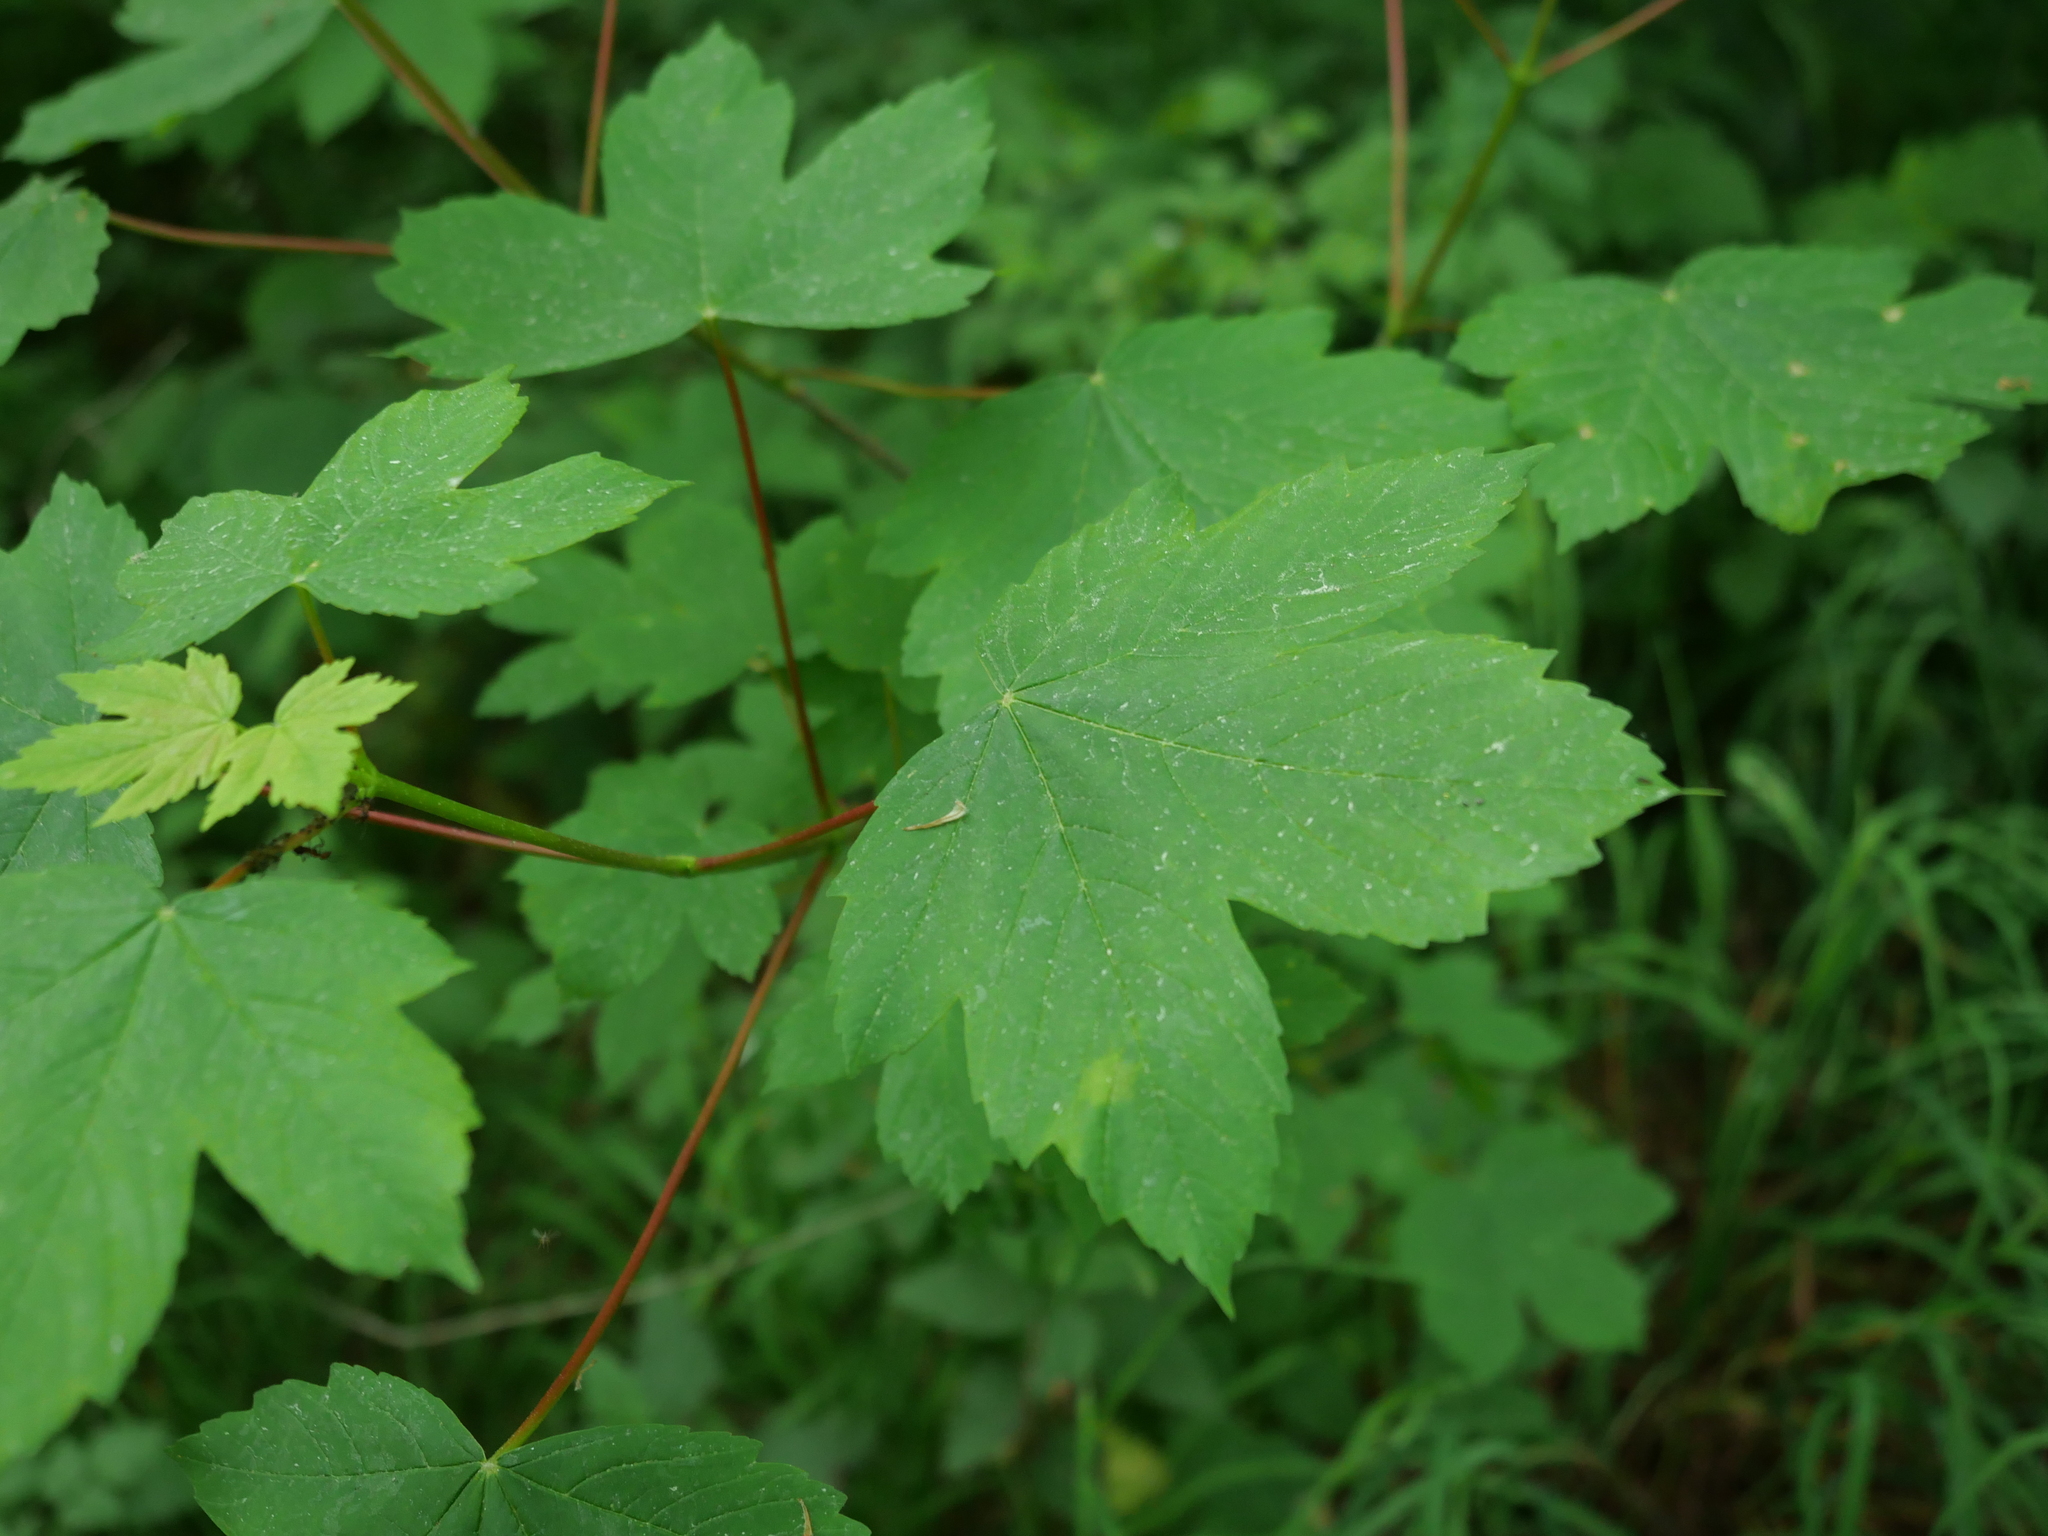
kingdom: Plantae
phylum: Tracheophyta
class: Magnoliopsida
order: Sapindales
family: Sapindaceae
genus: Acer
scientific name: Acer pseudoplatanus
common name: Sycamore
